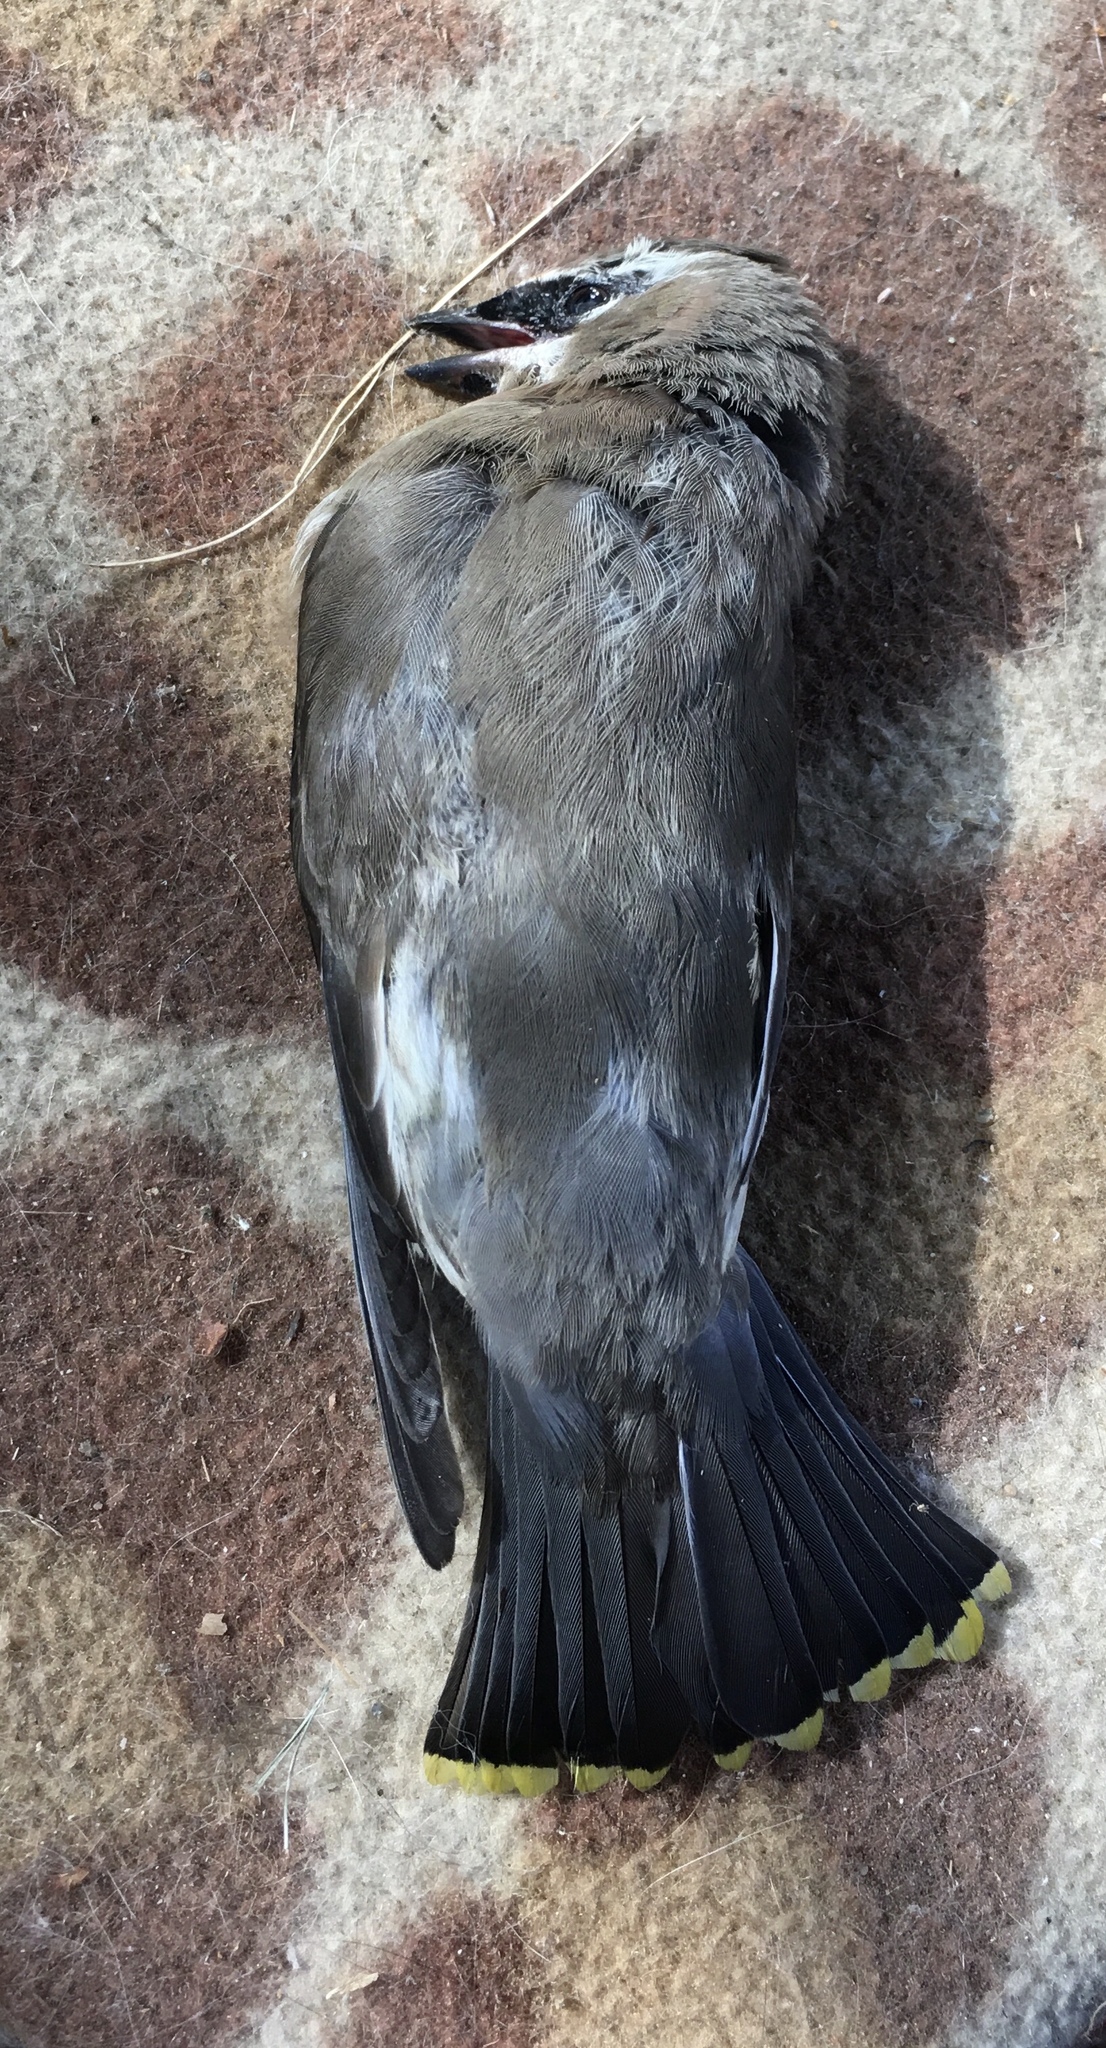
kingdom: Animalia
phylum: Chordata
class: Aves
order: Passeriformes
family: Bombycillidae
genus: Bombycilla
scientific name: Bombycilla cedrorum
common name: Cedar waxwing
